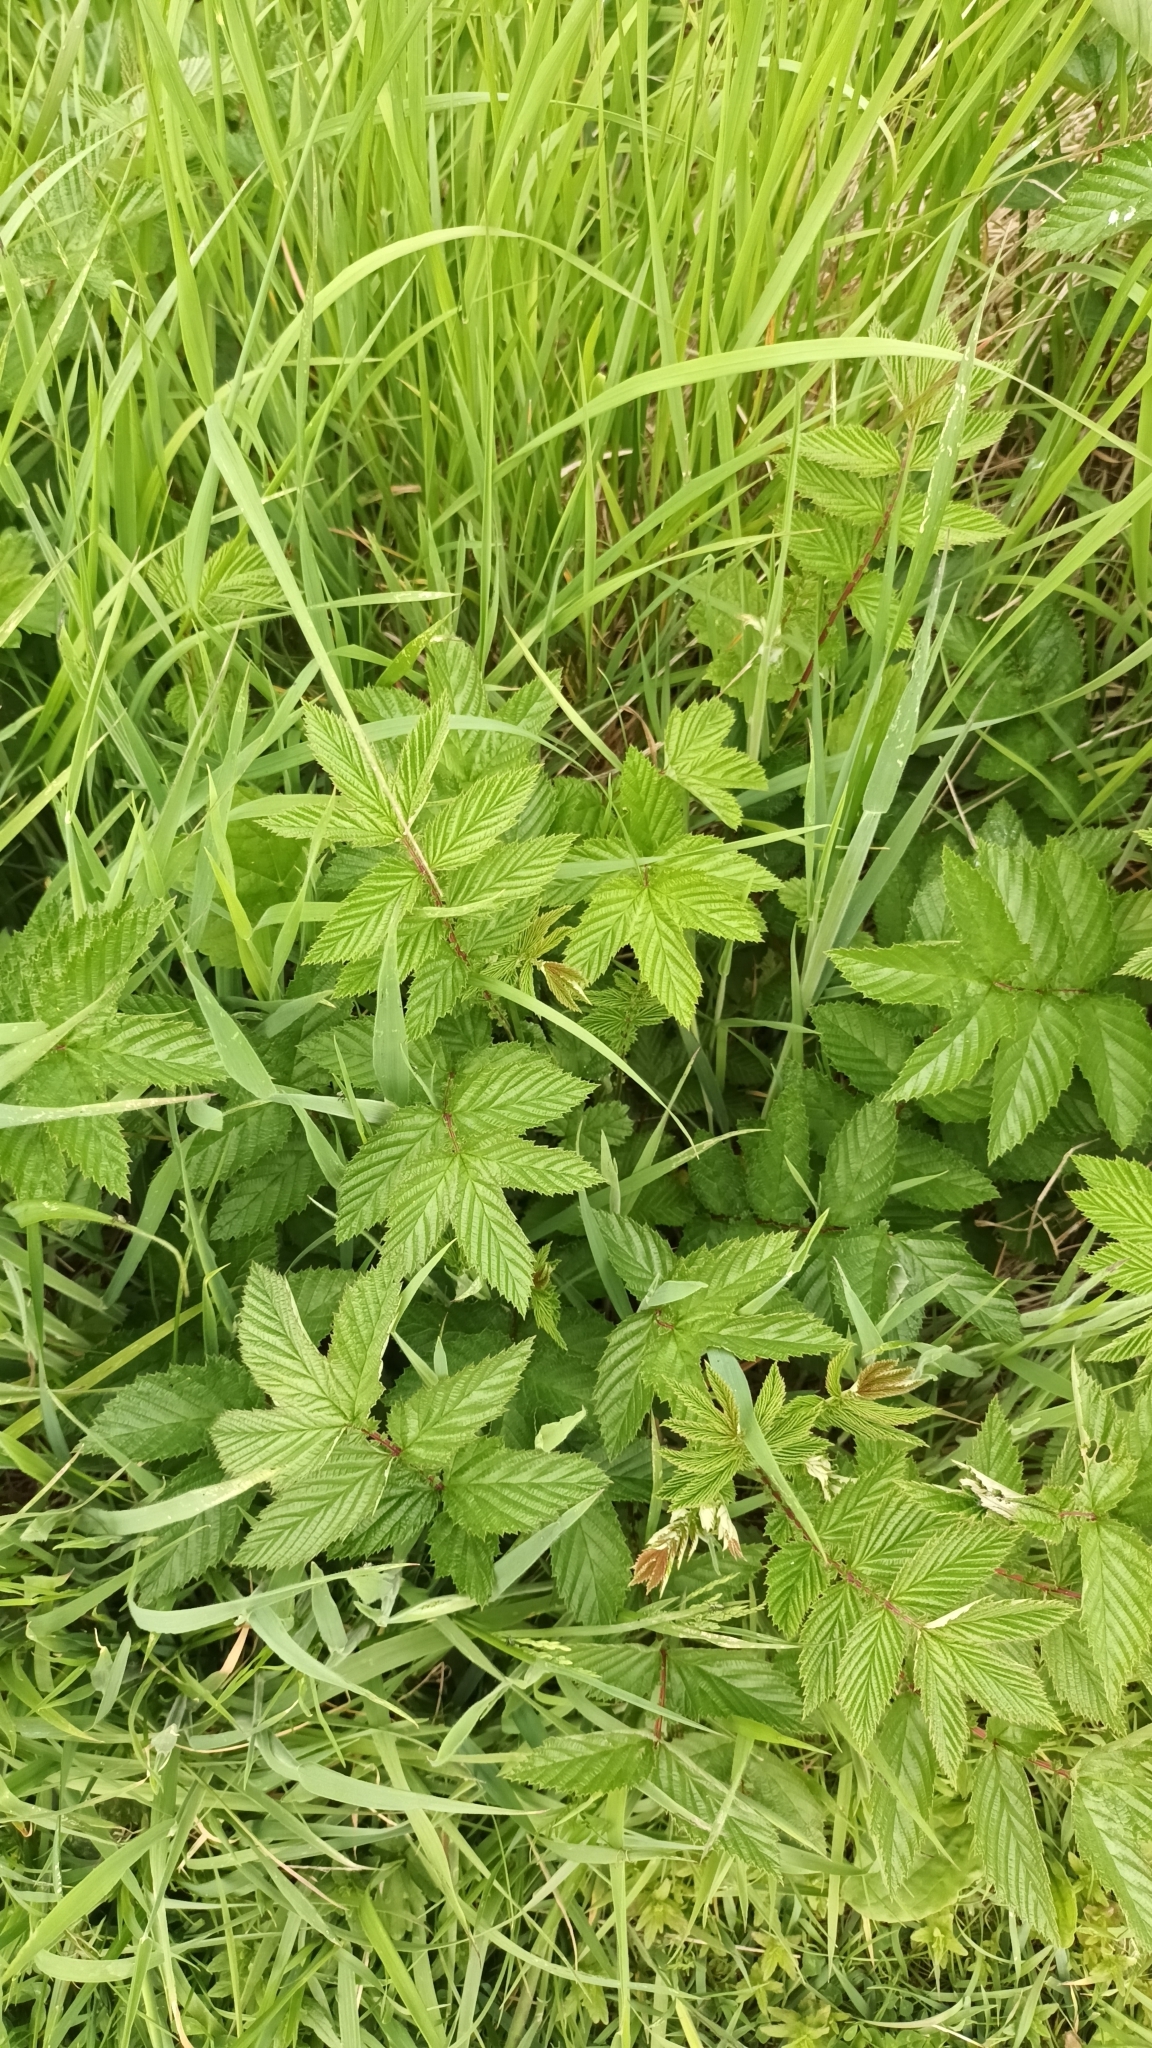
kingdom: Plantae
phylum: Tracheophyta
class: Magnoliopsida
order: Rosales
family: Rosaceae
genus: Filipendula
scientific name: Filipendula ulmaria
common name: Meadowsweet
